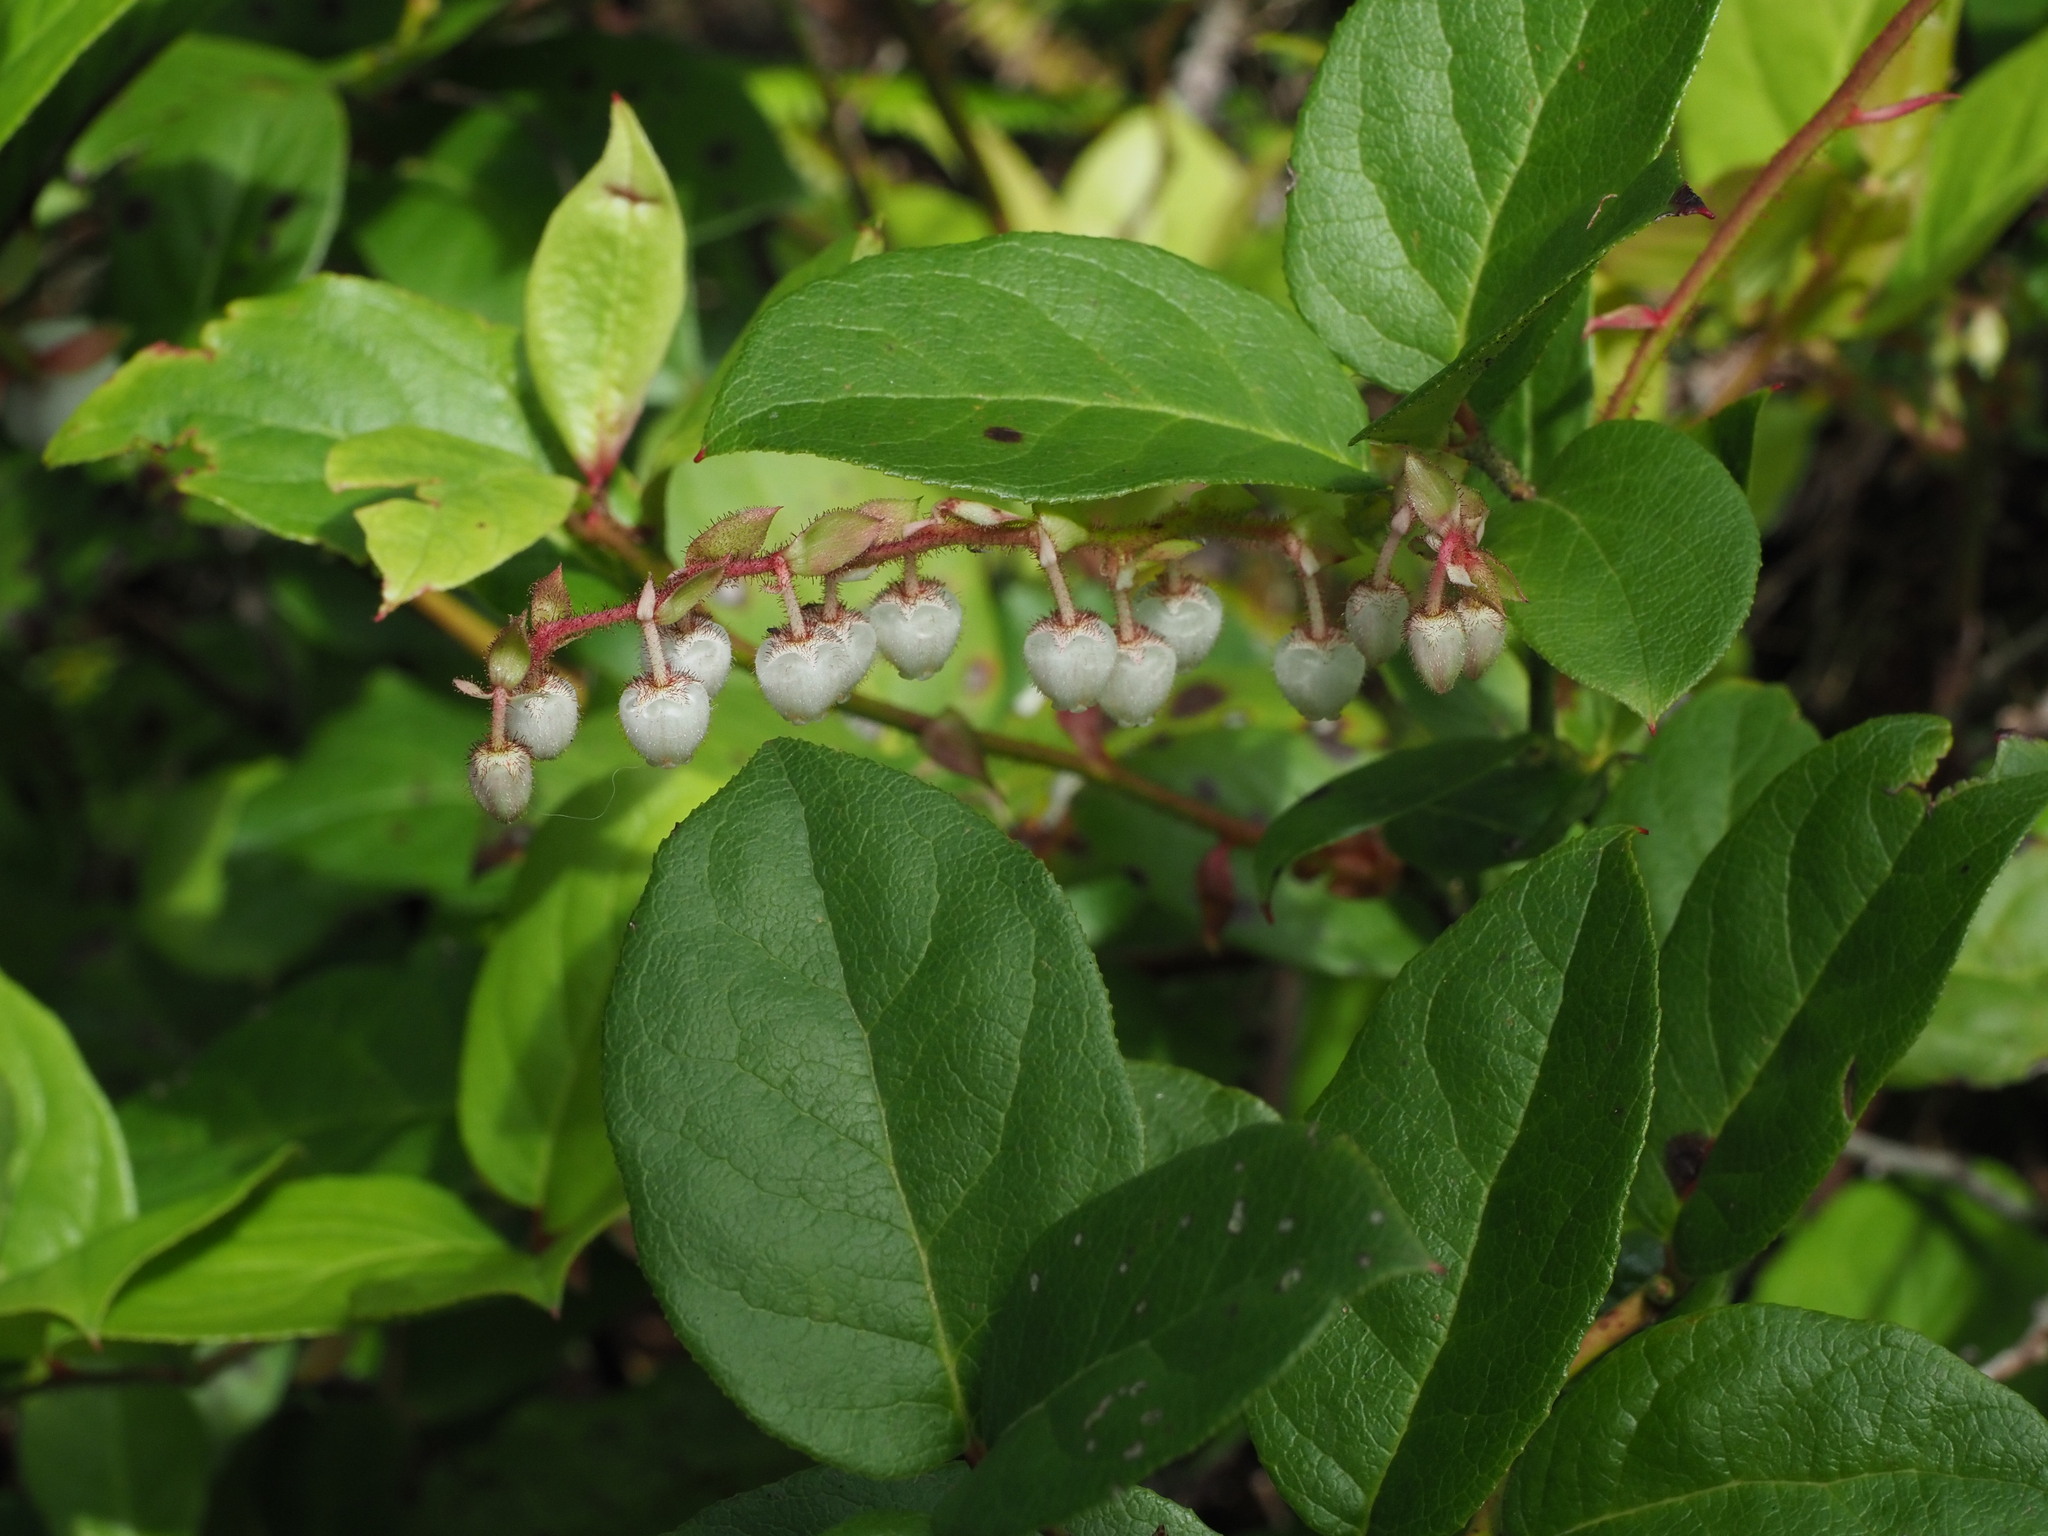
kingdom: Plantae
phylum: Tracheophyta
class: Magnoliopsida
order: Ericales
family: Ericaceae
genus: Gaultheria
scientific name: Gaultheria shallon
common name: Shallon
